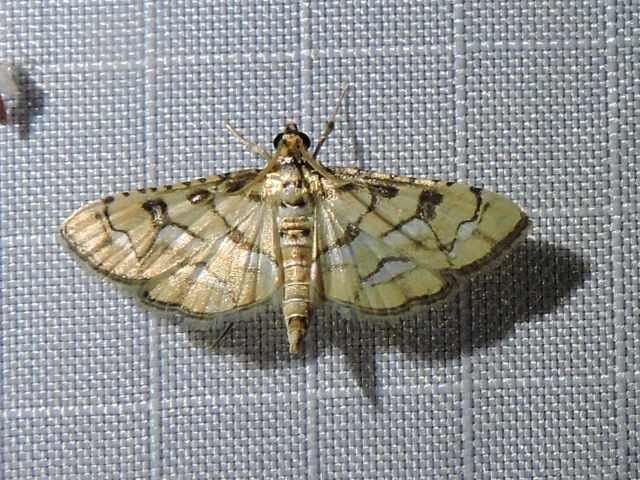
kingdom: Animalia
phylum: Arthropoda
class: Insecta
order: Lepidoptera
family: Crambidae
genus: Hileithia
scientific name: Hileithia magualis
